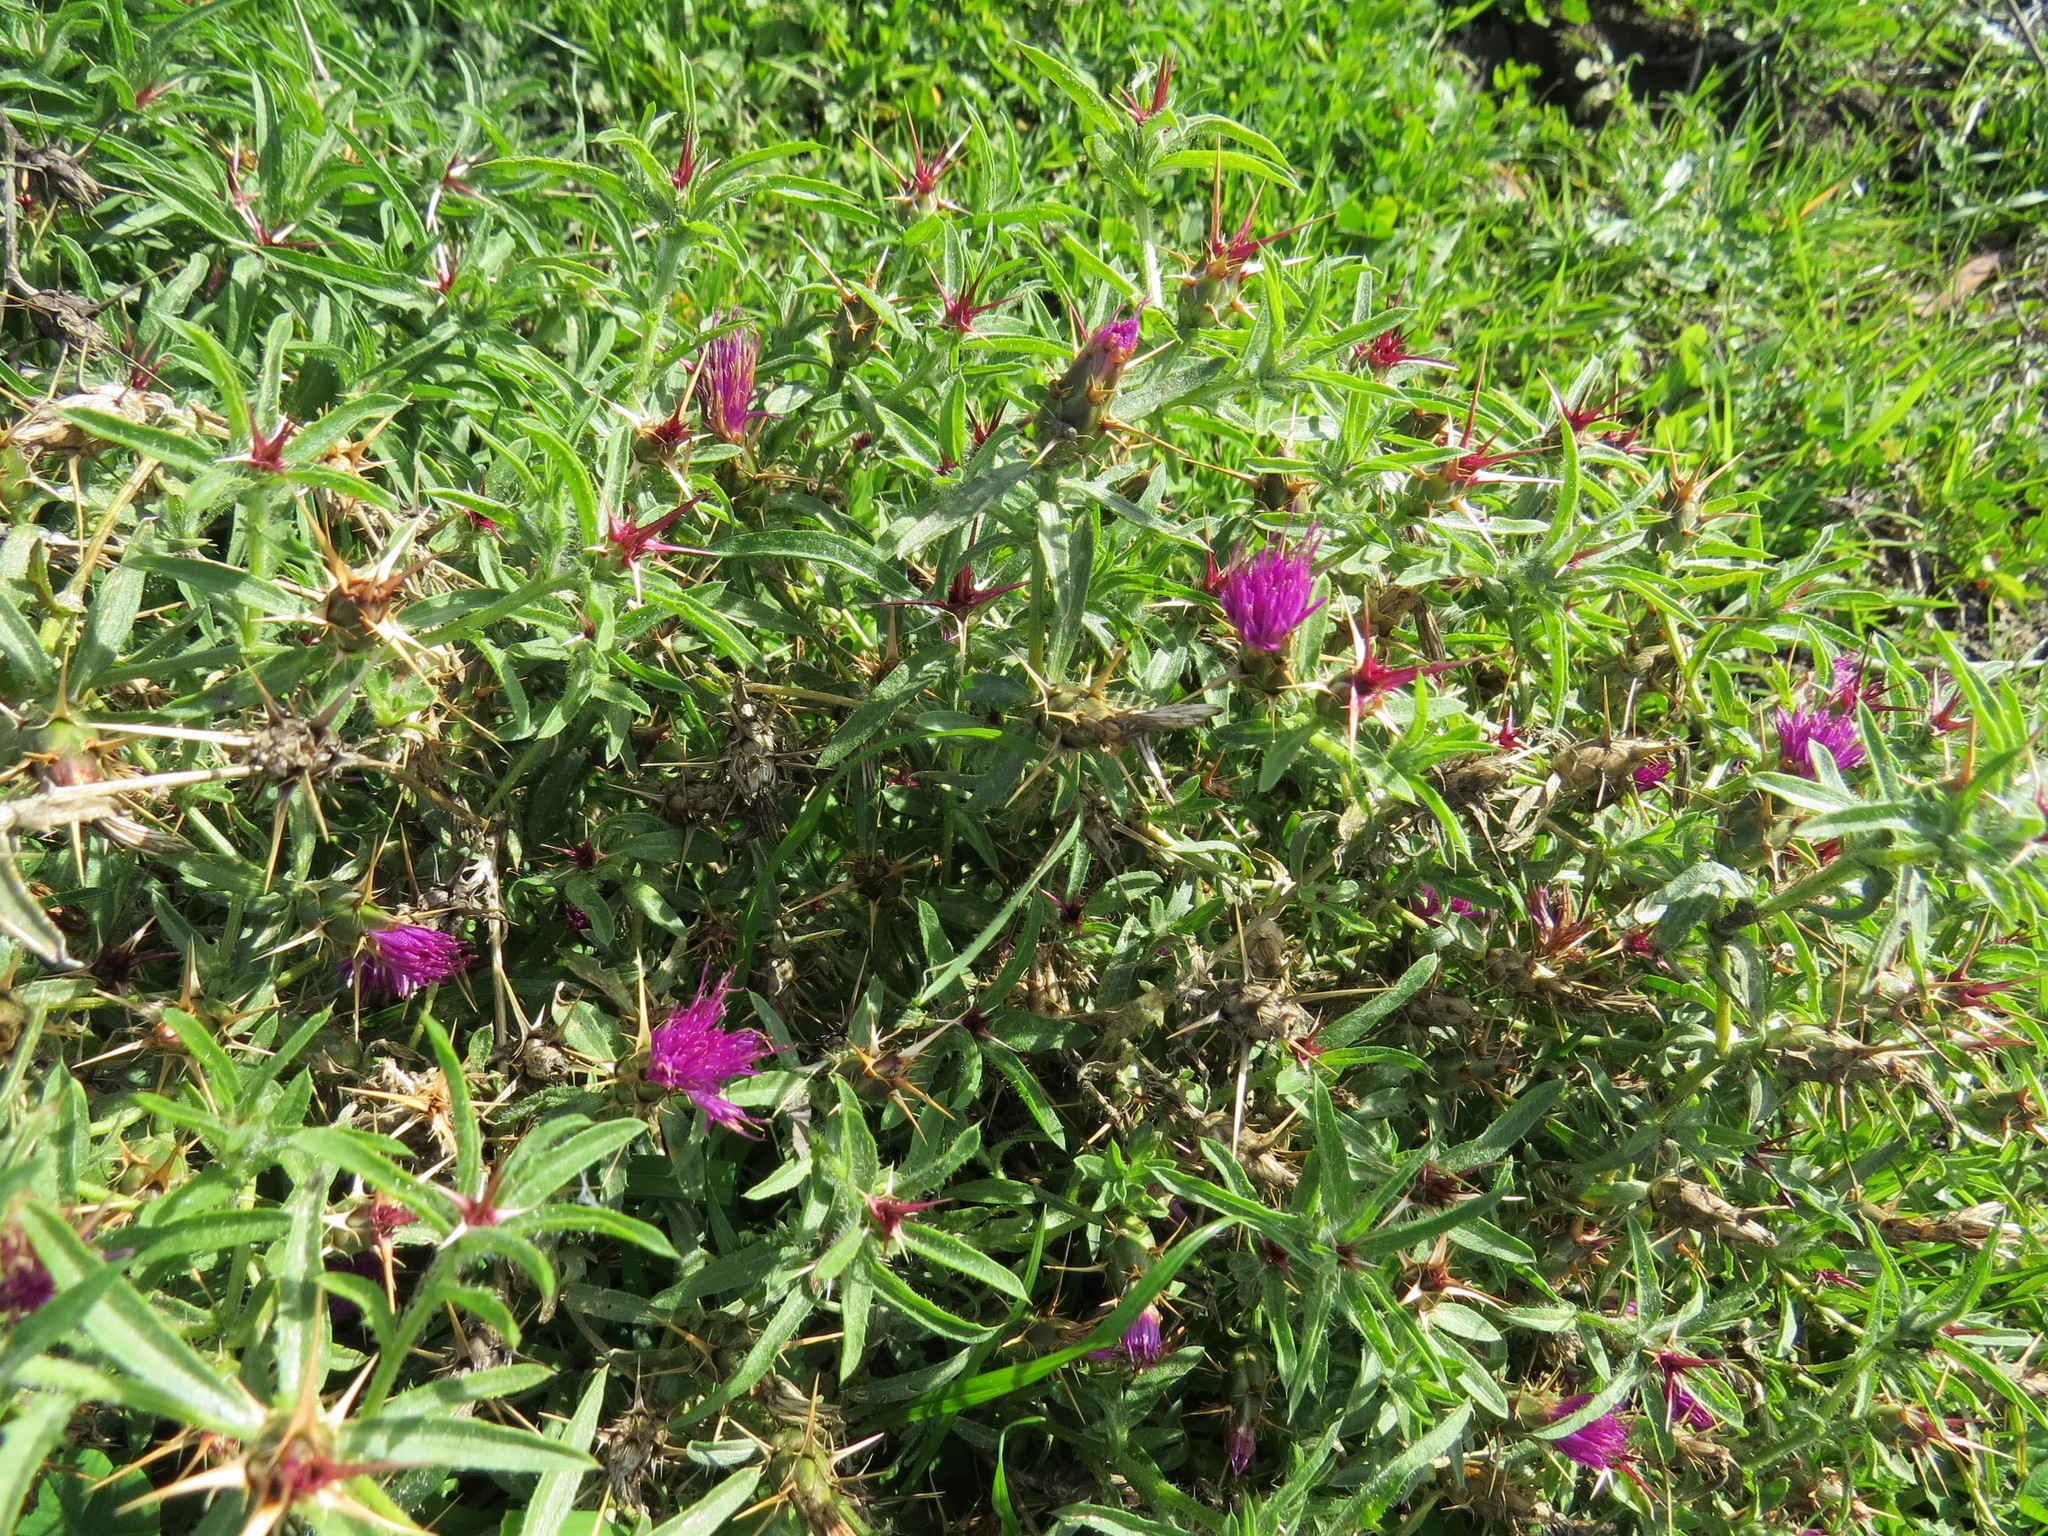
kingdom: Plantae
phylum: Tracheophyta
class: Magnoliopsida
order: Asterales
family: Asteraceae
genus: Centaurea
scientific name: Centaurea calcitrapa
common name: Red star-thistle
